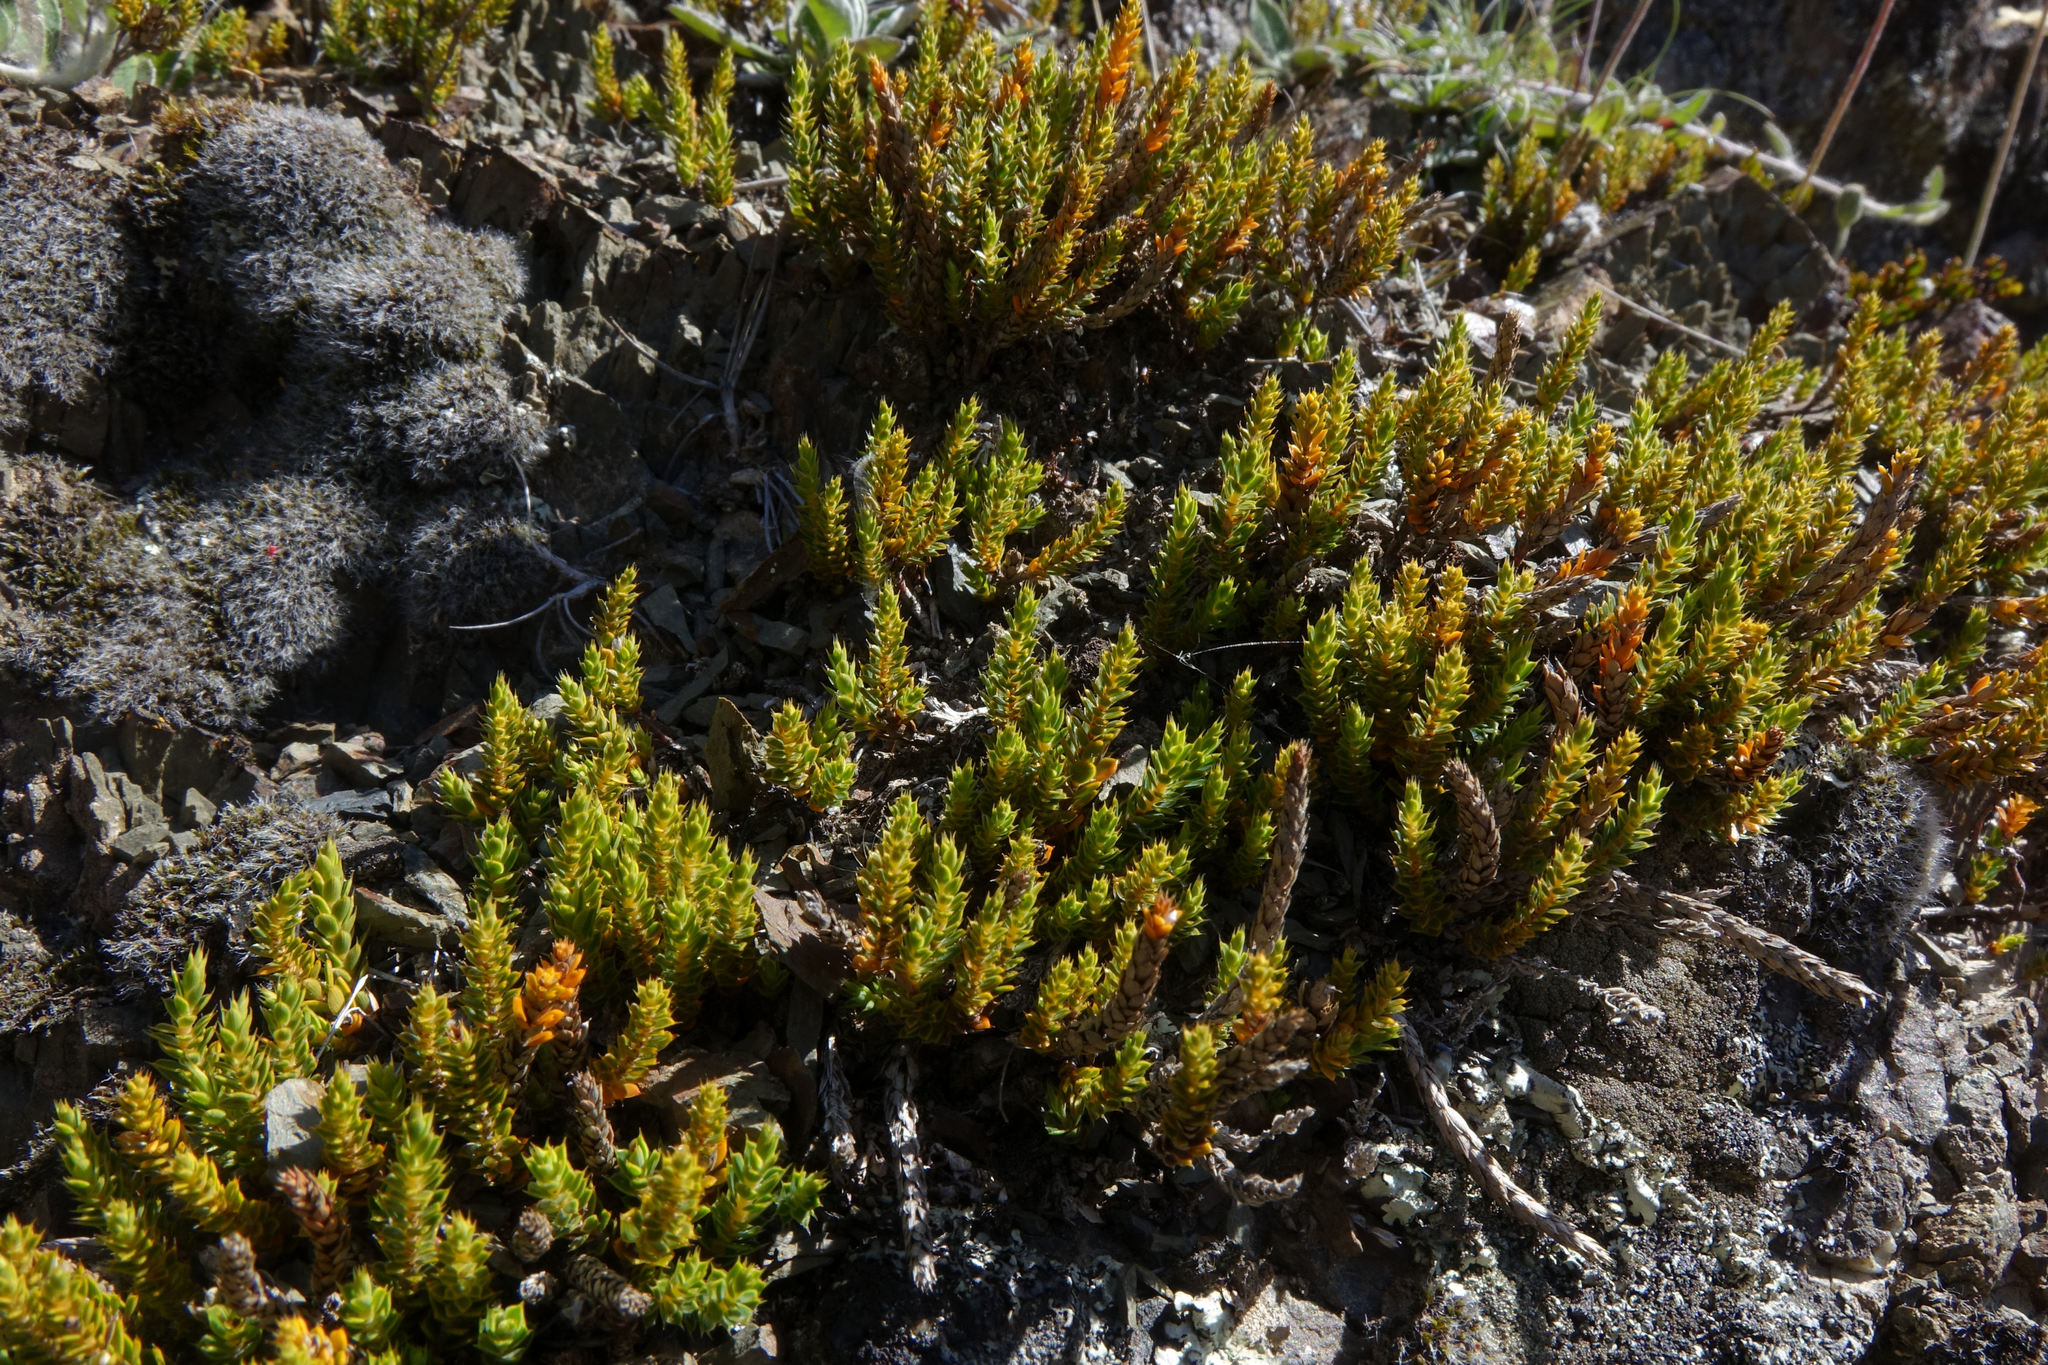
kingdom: Plantae
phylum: Tracheophyta
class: Magnoliopsida
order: Ericales
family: Ericaceae
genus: Styphelia
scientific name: Styphelia nesophila
